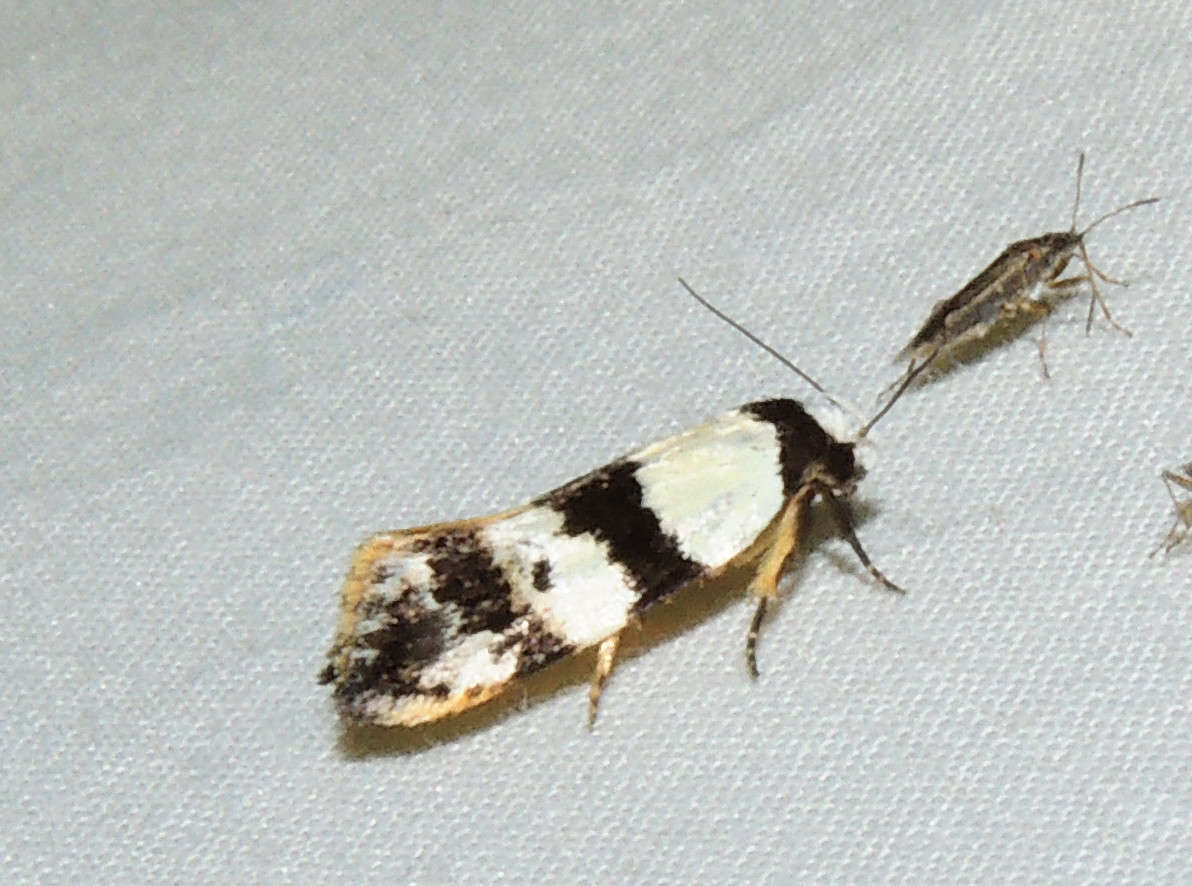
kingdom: Animalia
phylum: Arthropoda
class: Insecta
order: Lepidoptera
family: Oecophoridae
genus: Zonopetala
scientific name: Zonopetala decisana
